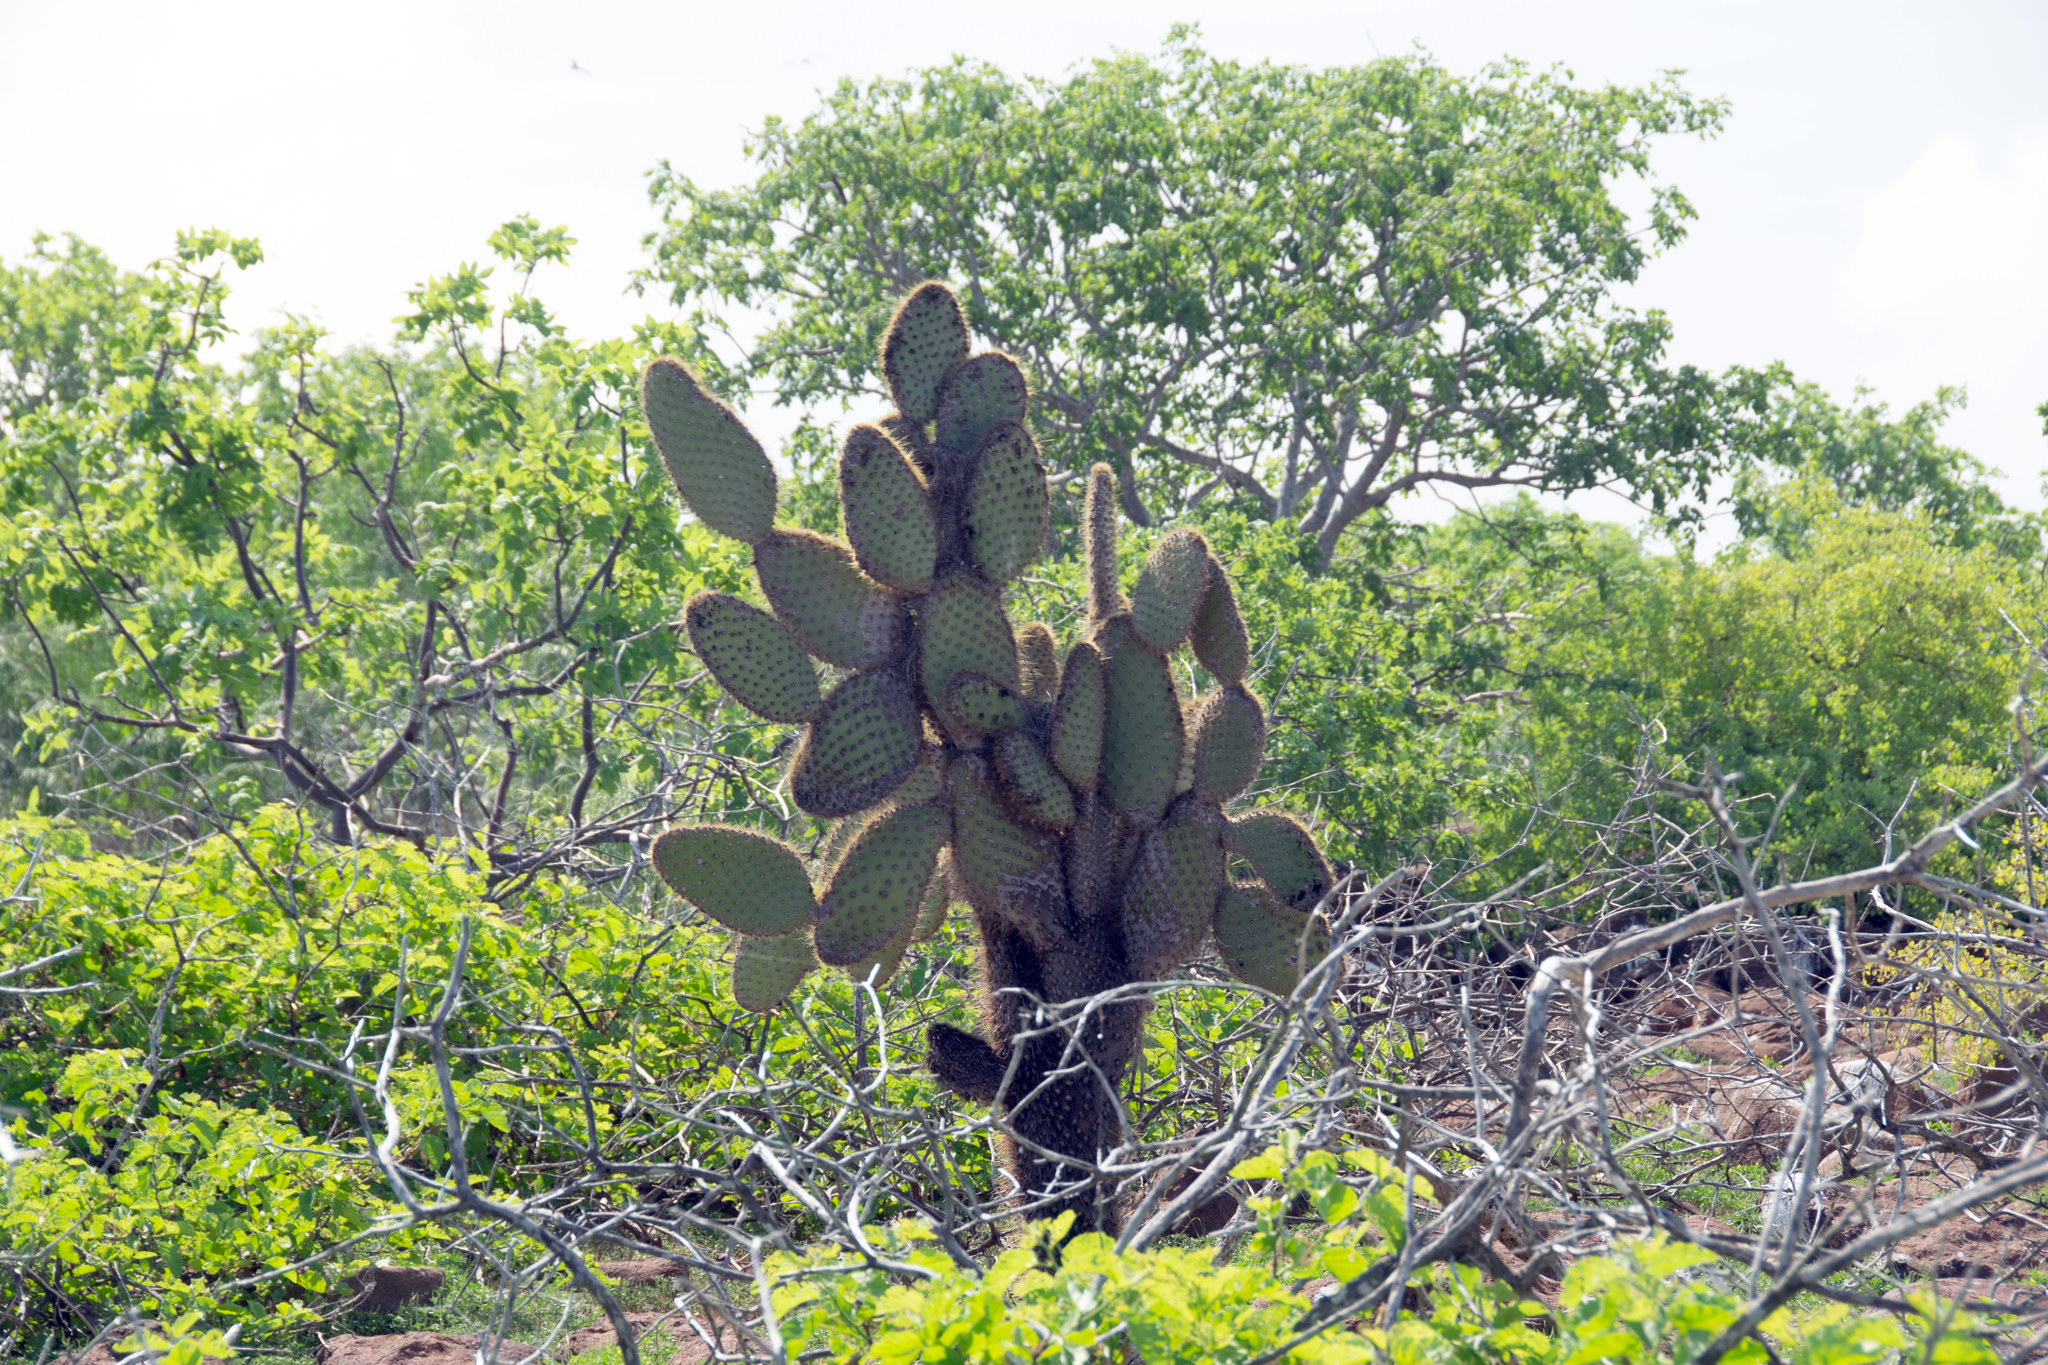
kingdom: Plantae
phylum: Tracheophyta
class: Magnoliopsida
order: Caryophyllales
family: Cactaceae
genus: Opuntia
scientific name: Opuntia galapageia
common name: Galápagos prickly pear
